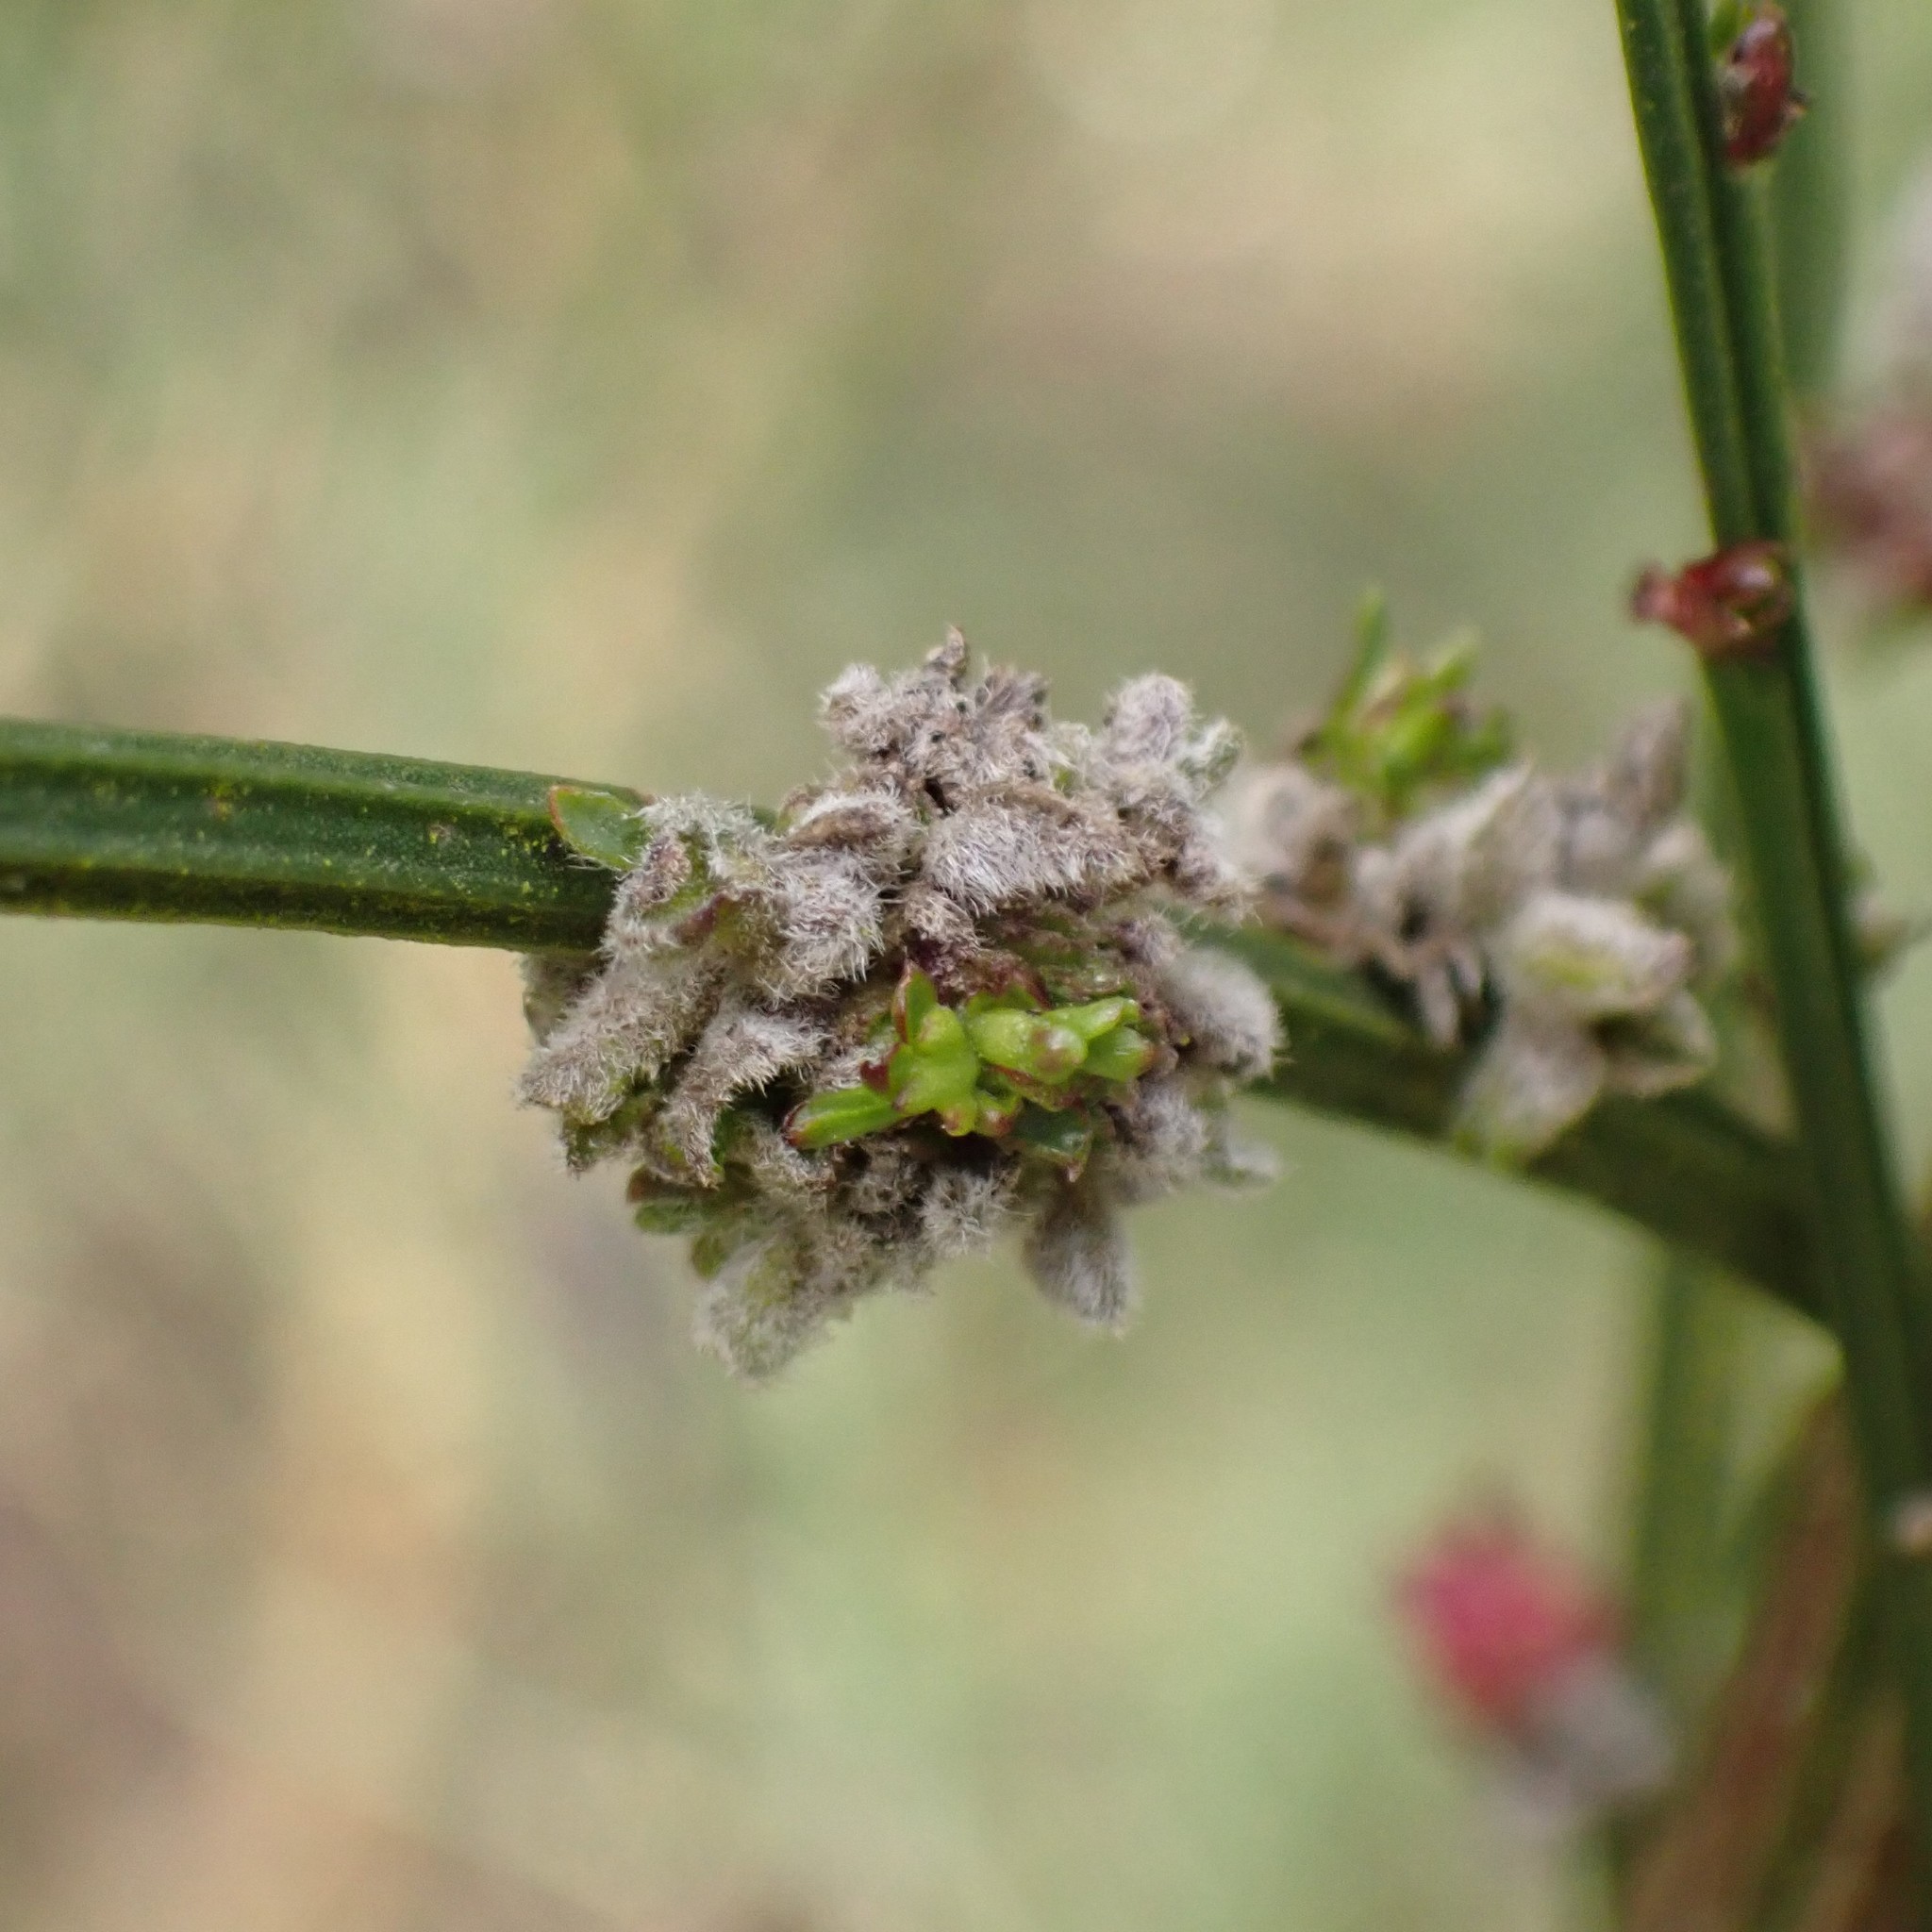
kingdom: Animalia
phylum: Arthropoda
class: Arachnida
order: Trombidiformes
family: Eriophyidae
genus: Aceria
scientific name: Aceria genistae
